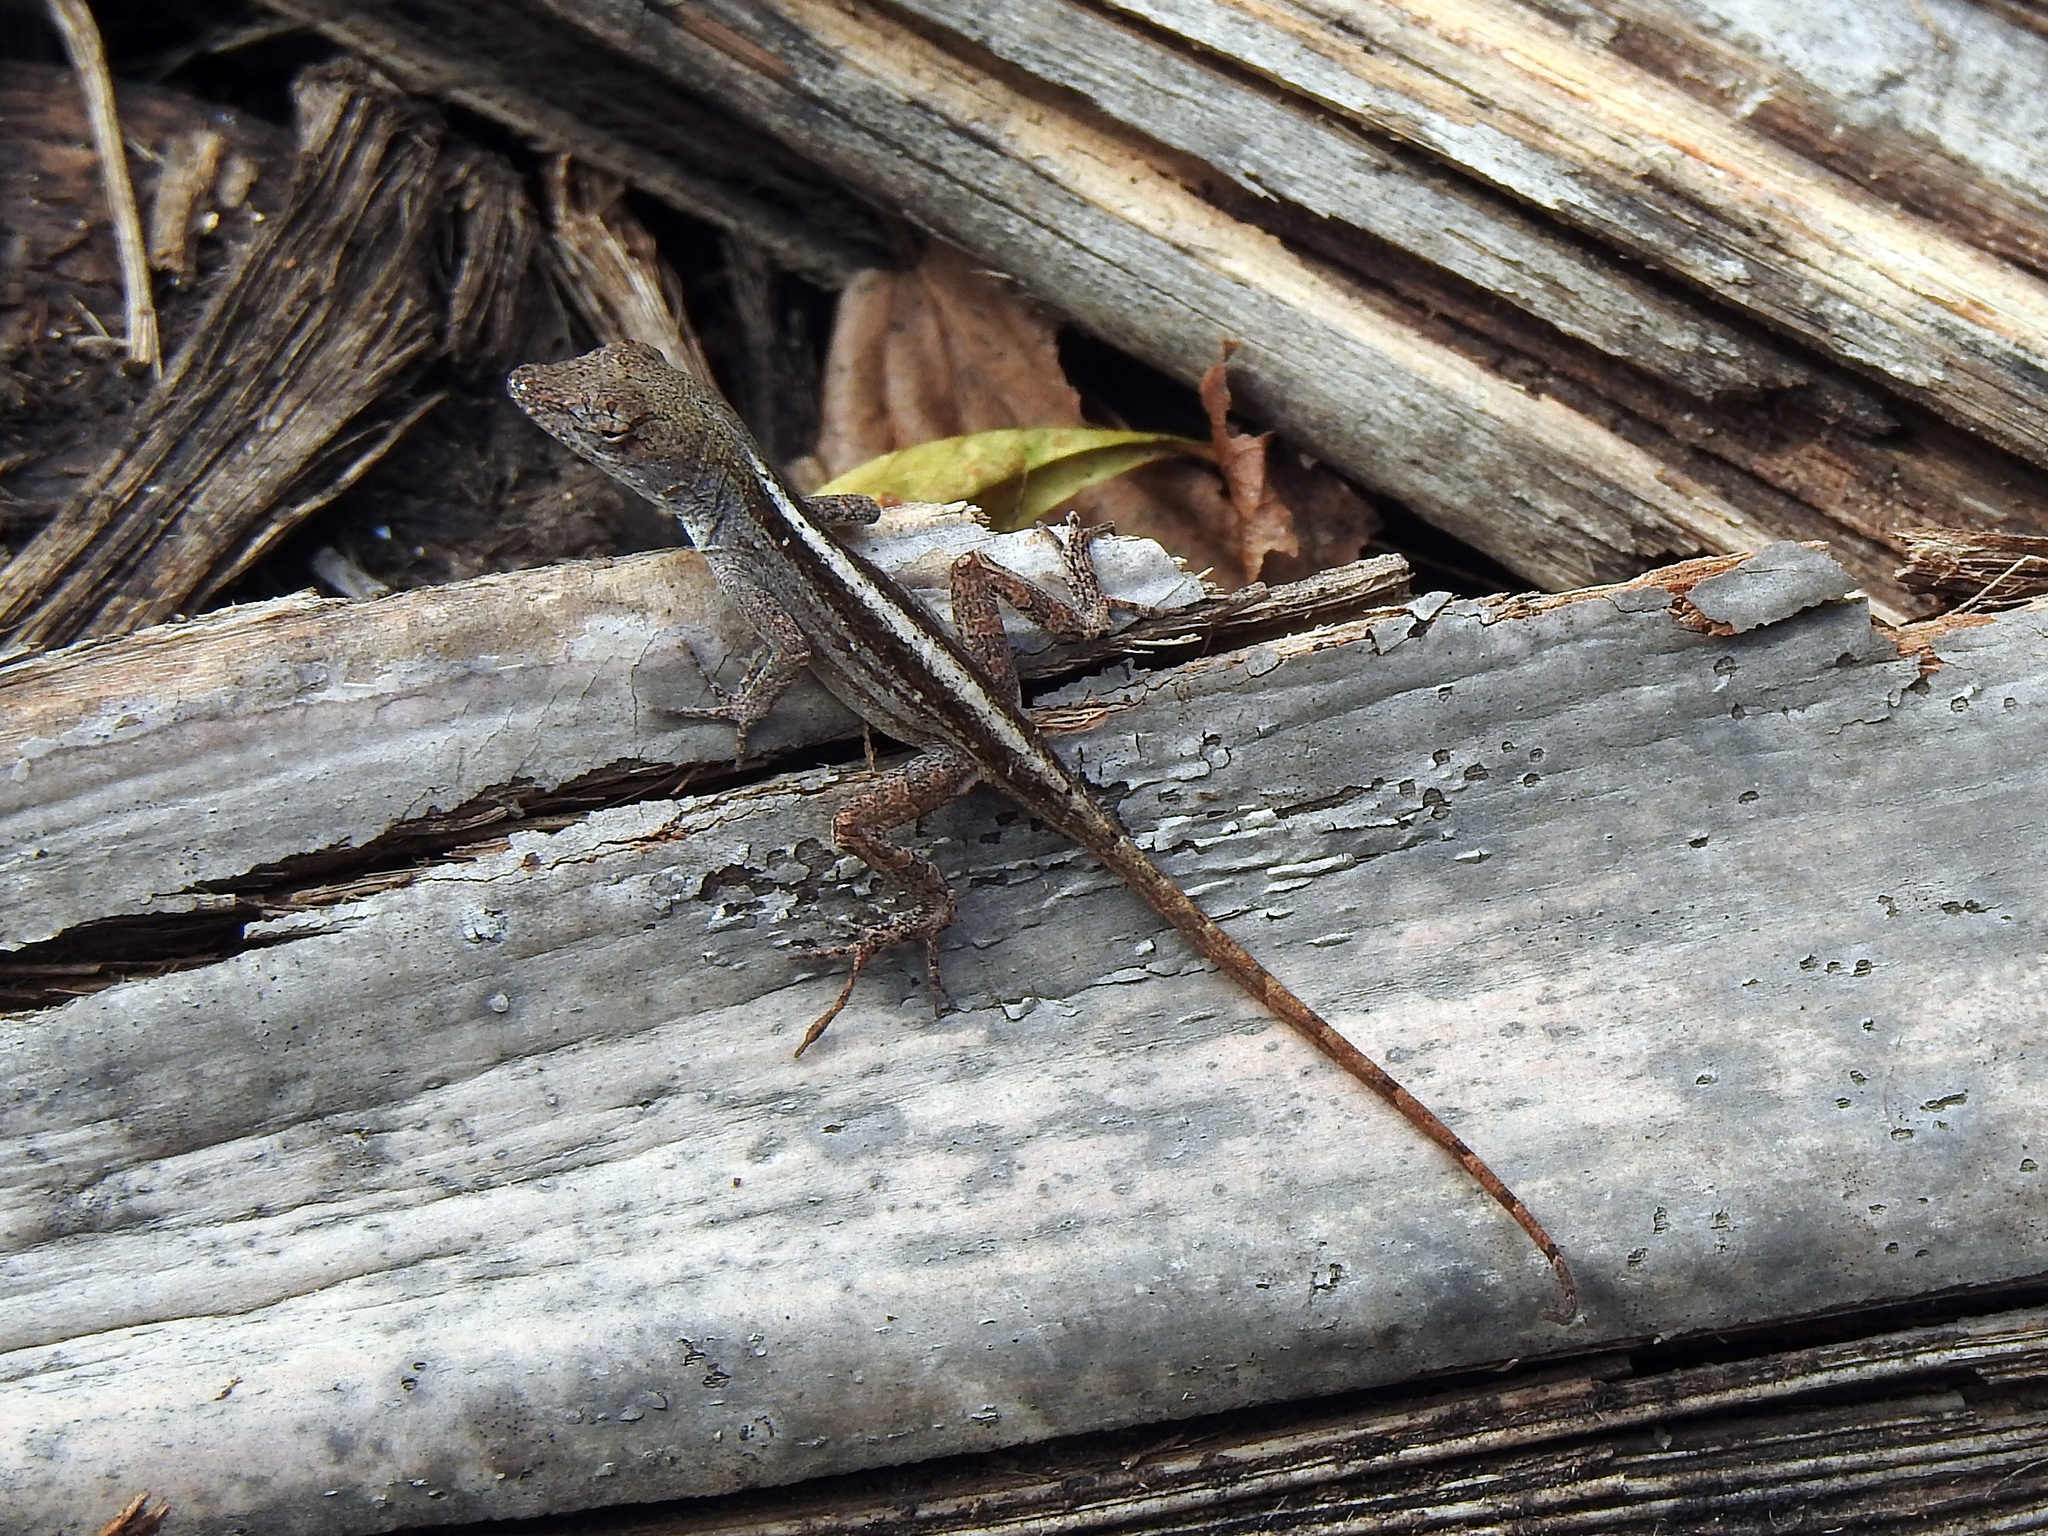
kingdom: Animalia
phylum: Chordata
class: Squamata
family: Dactyloidae
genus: Anolis
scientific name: Anolis sagrei
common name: Brown anole
